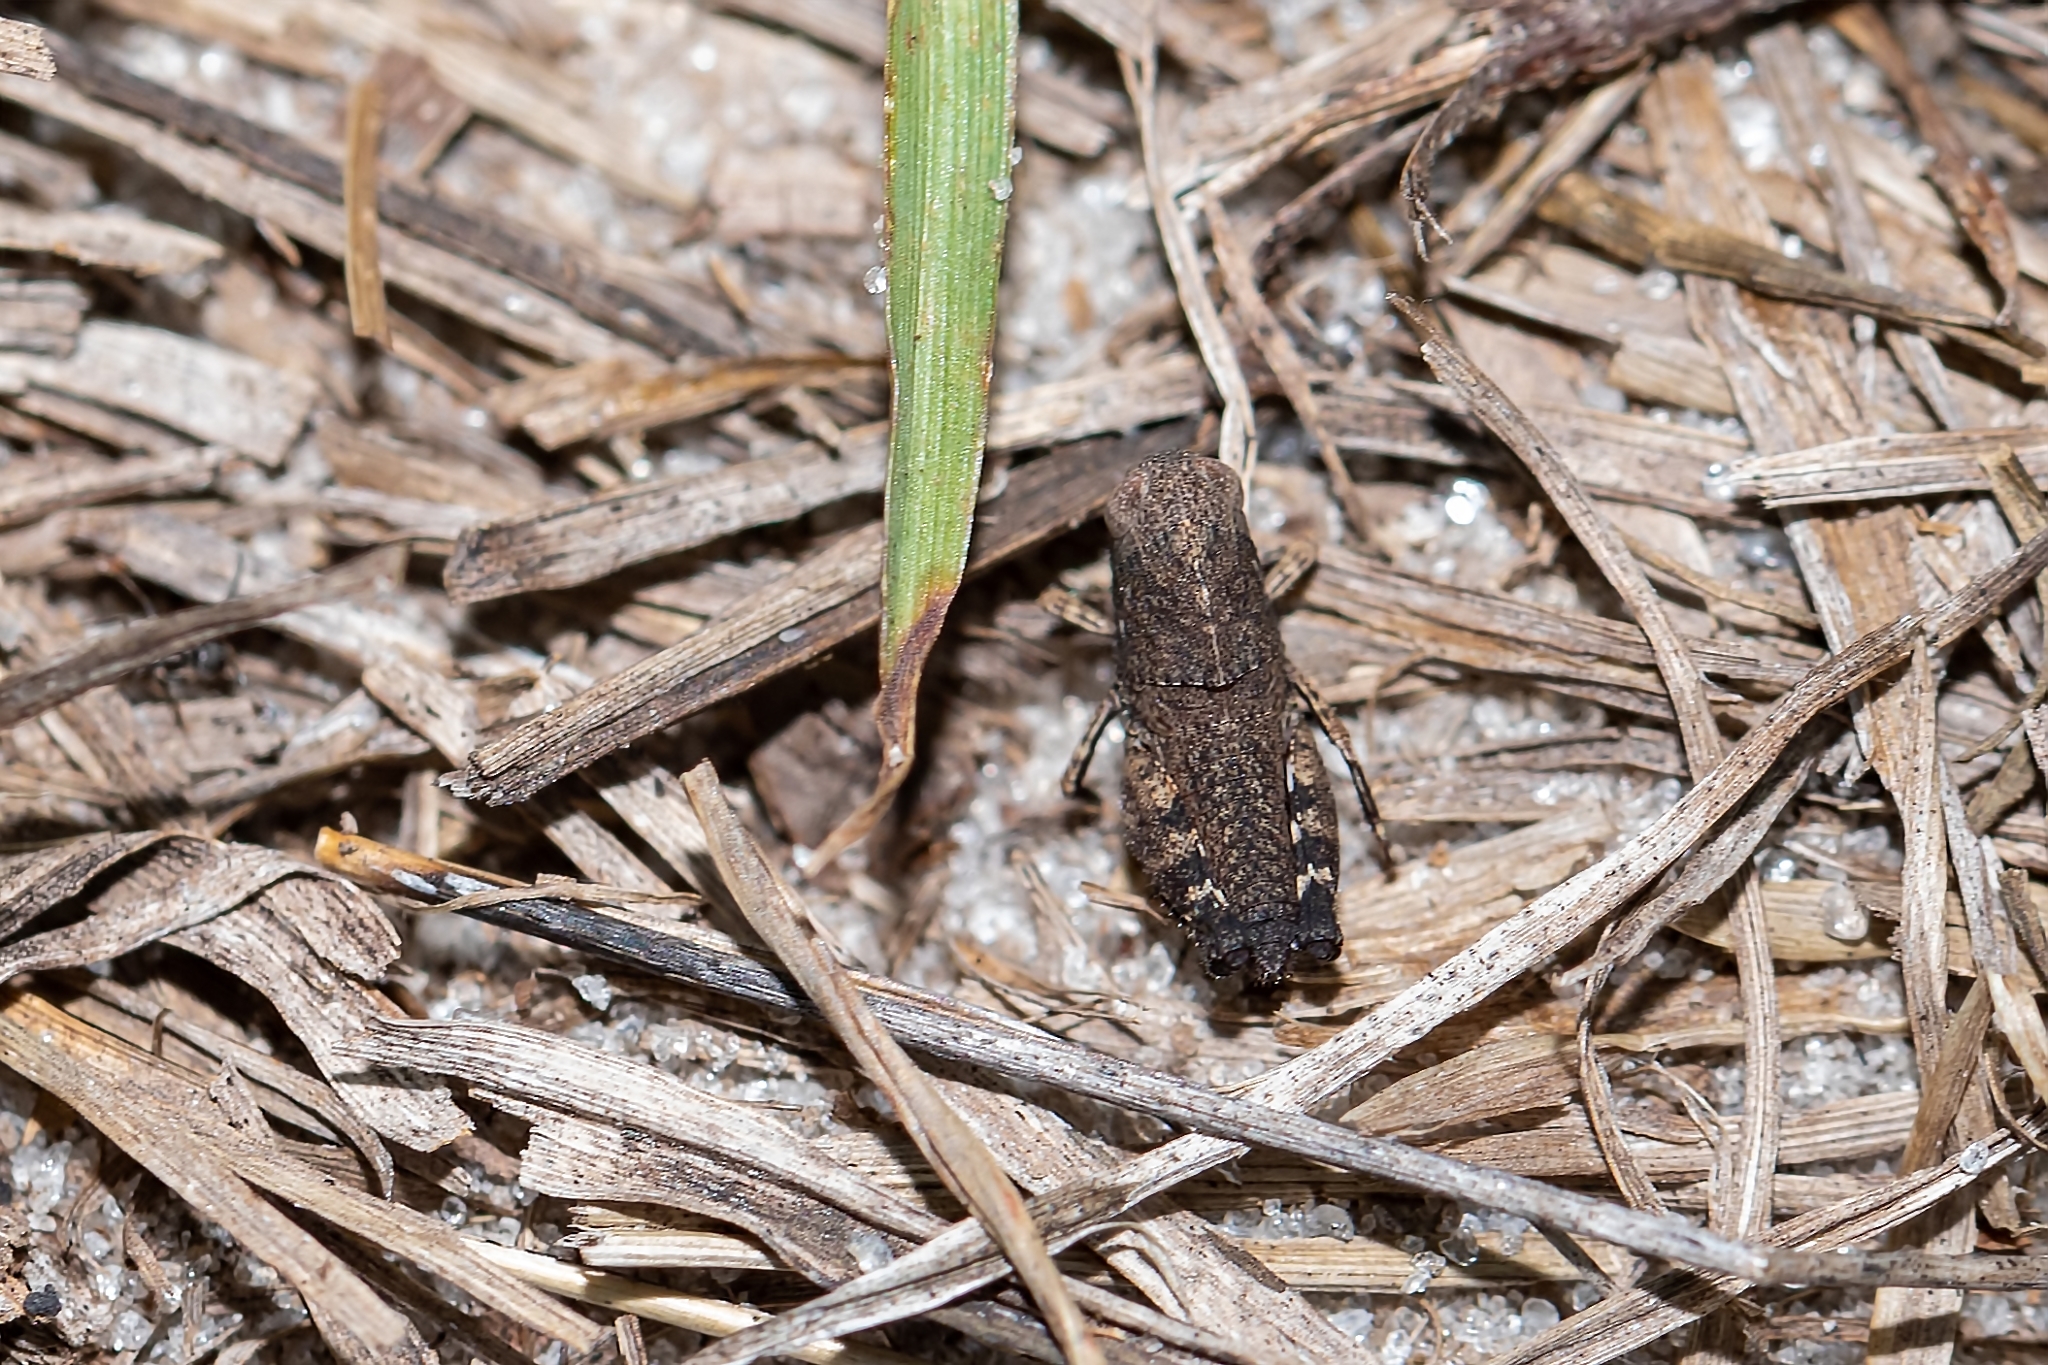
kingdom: Animalia
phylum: Arthropoda
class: Insecta
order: Orthoptera
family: Acrididae
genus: Arphia
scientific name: Arphia granulata
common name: Southern yellow-winged grasshopper
